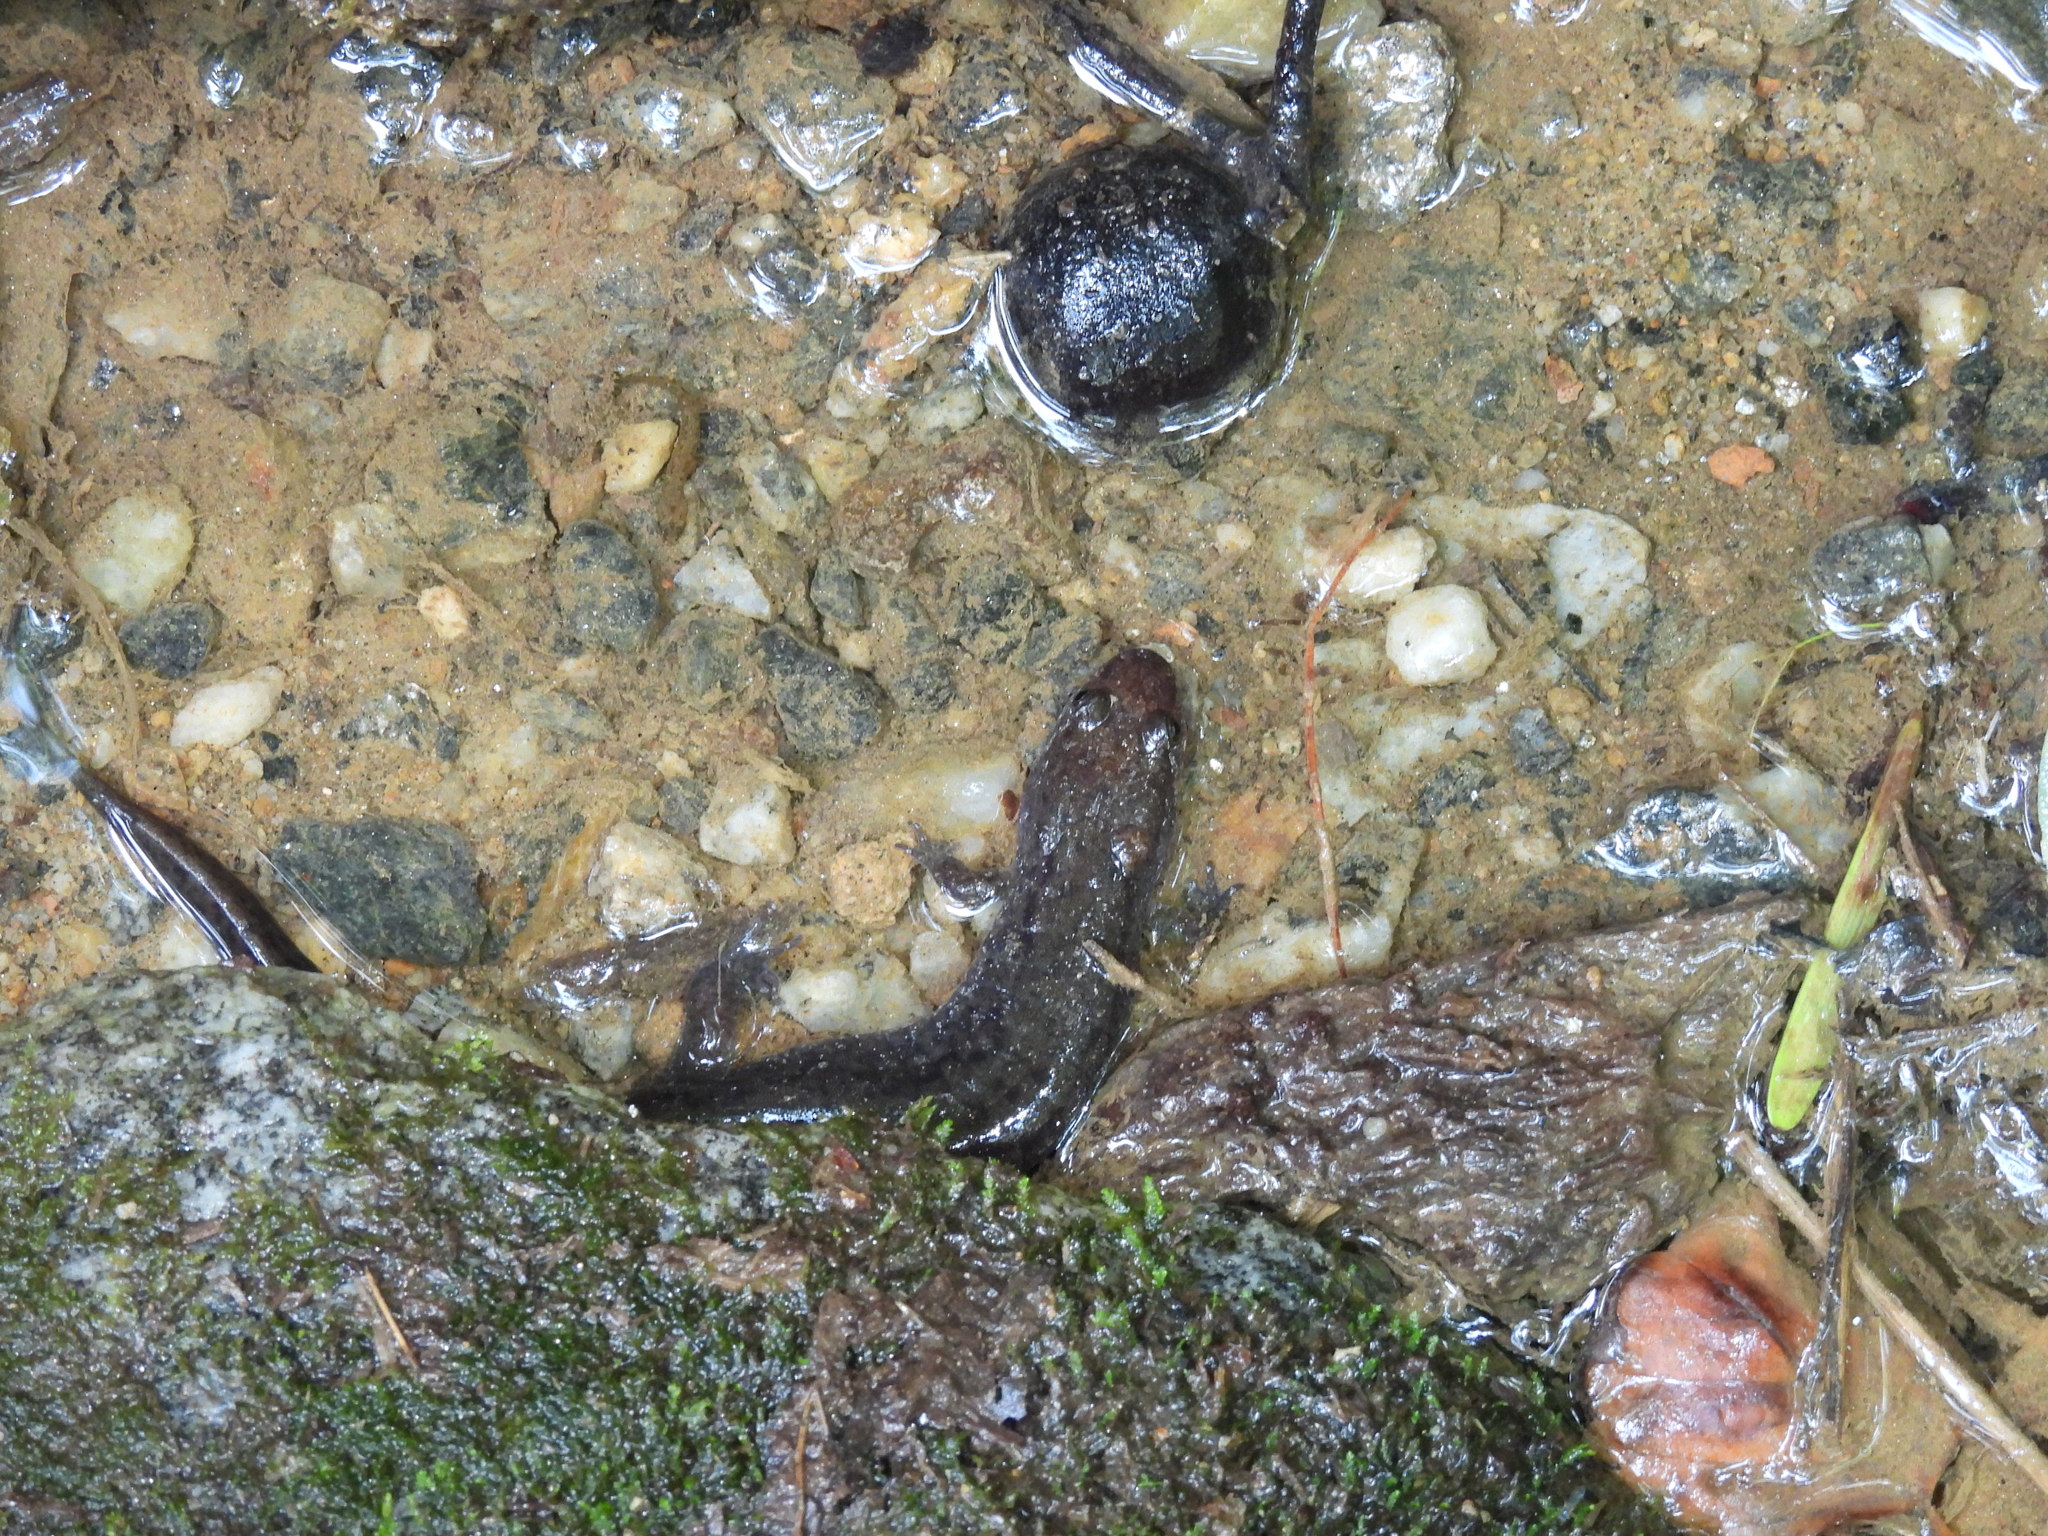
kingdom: Animalia
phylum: Chordata
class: Amphibia
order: Caudata
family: Plethodontidae
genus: Desmognathus
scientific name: Desmognathus conanti
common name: Spotted dusky salamander
